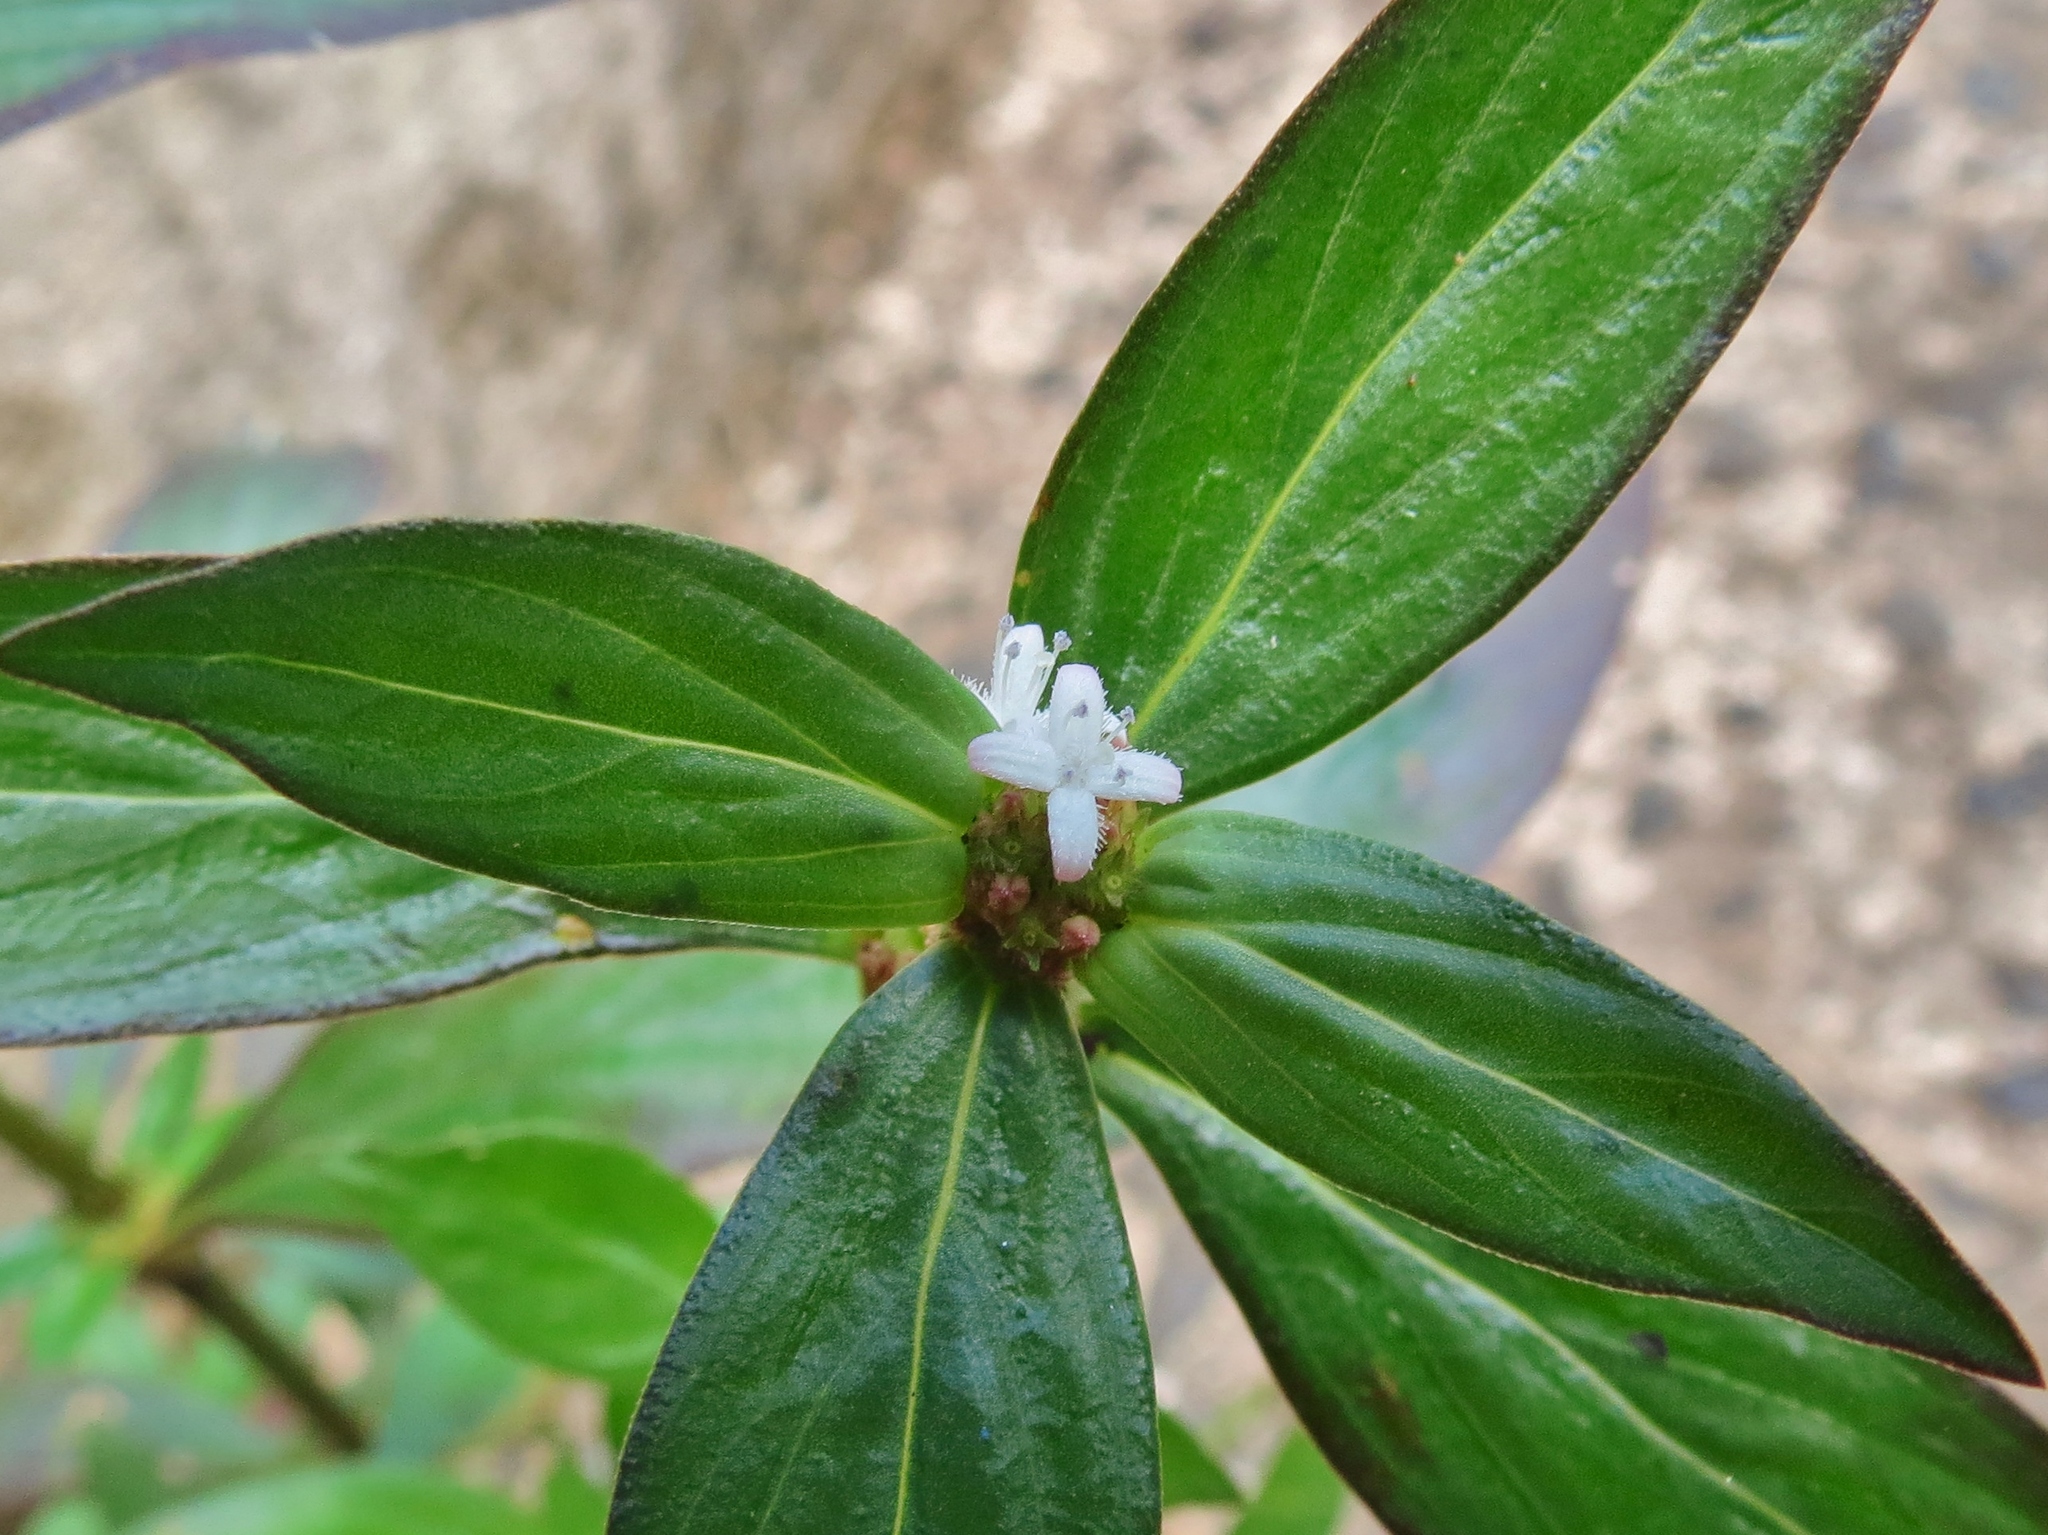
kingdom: Plantae
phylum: Tracheophyta
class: Magnoliopsida
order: Gentianales
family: Rubiaceae
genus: Spermacoce
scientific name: Spermacoce remota
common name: Woodland false buttonweed
